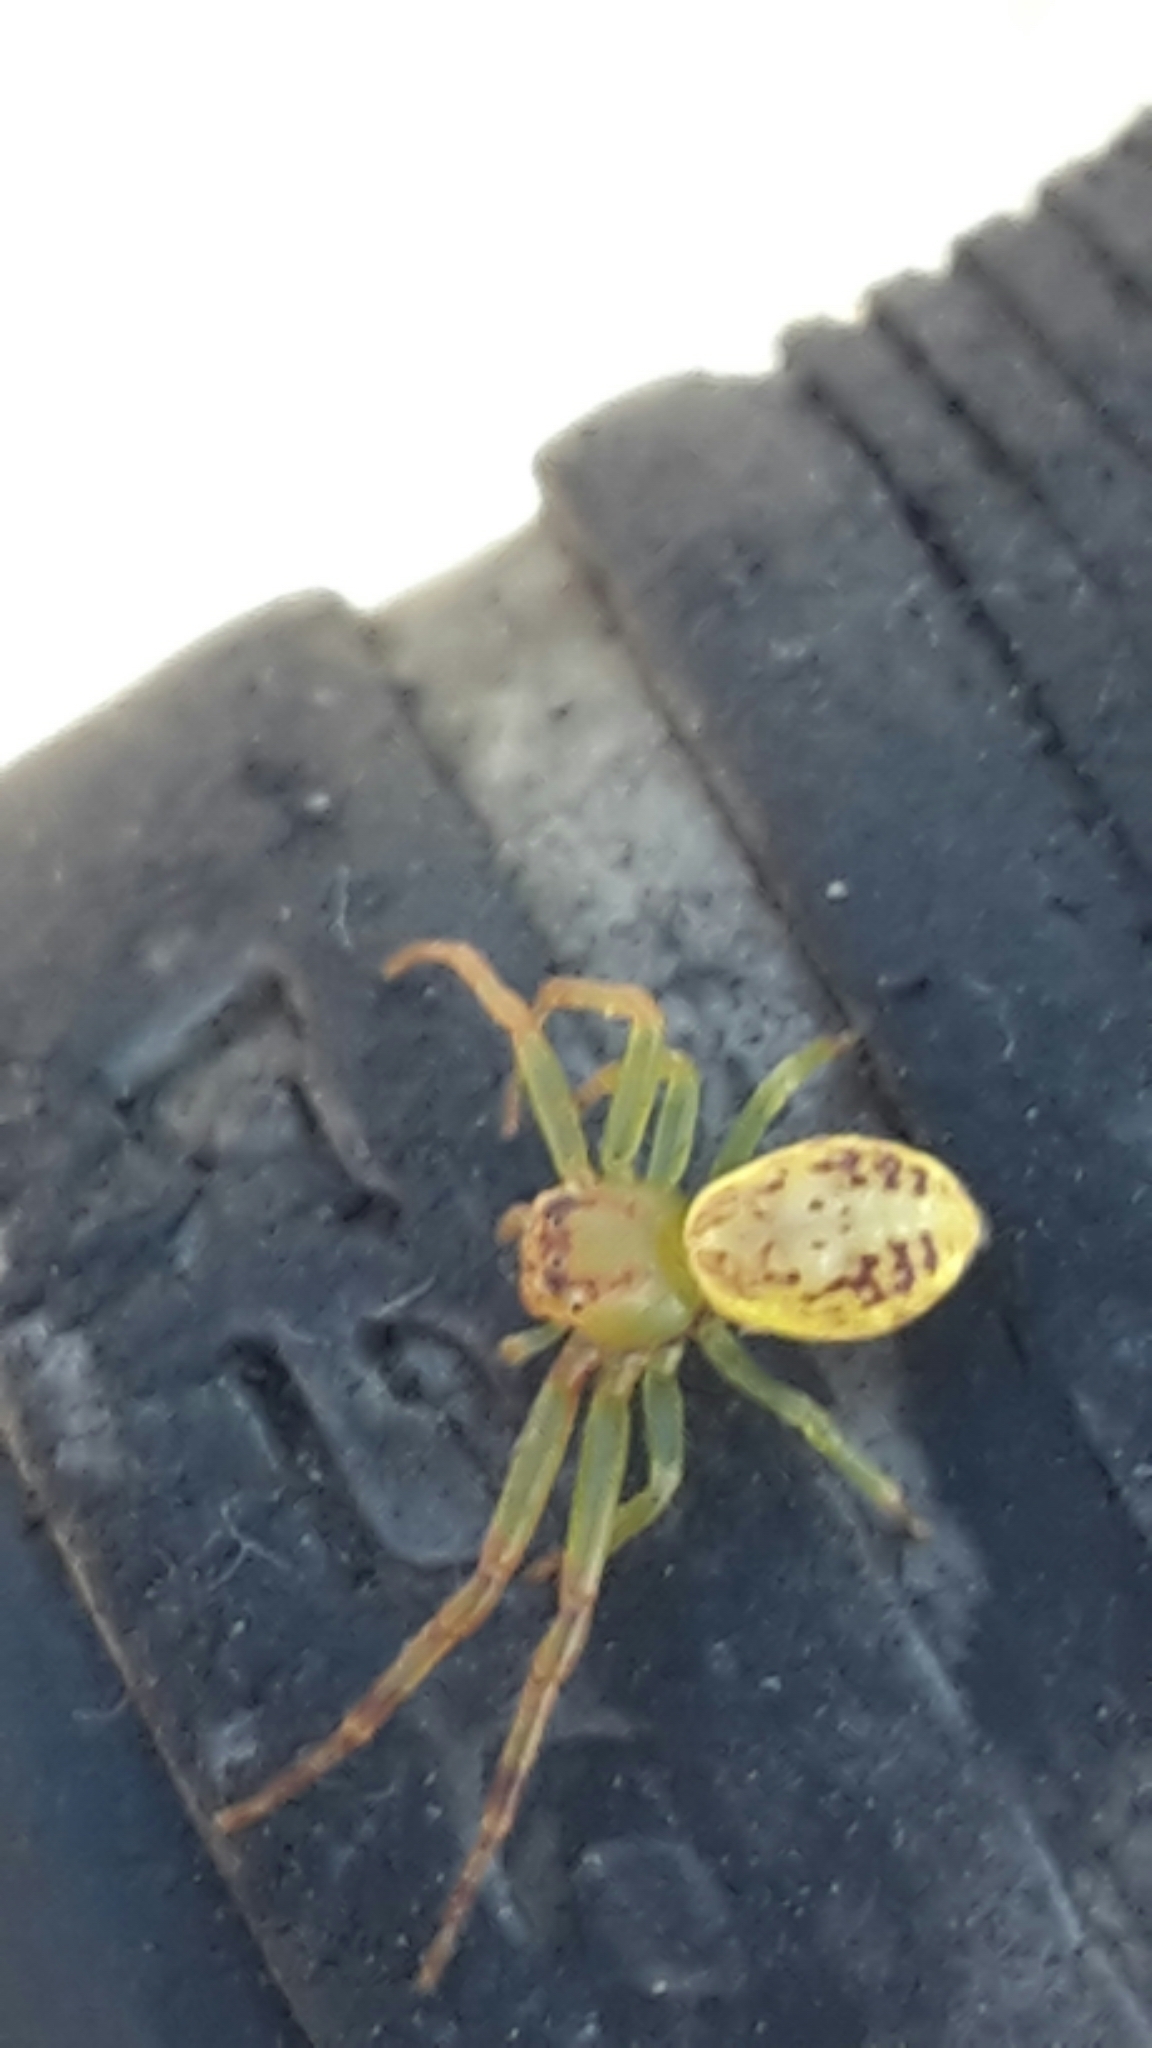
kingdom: Animalia
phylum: Arthropoda
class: Arachnida
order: Araneae
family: Thomisidae
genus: Diaea
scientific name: Diaea ambara
